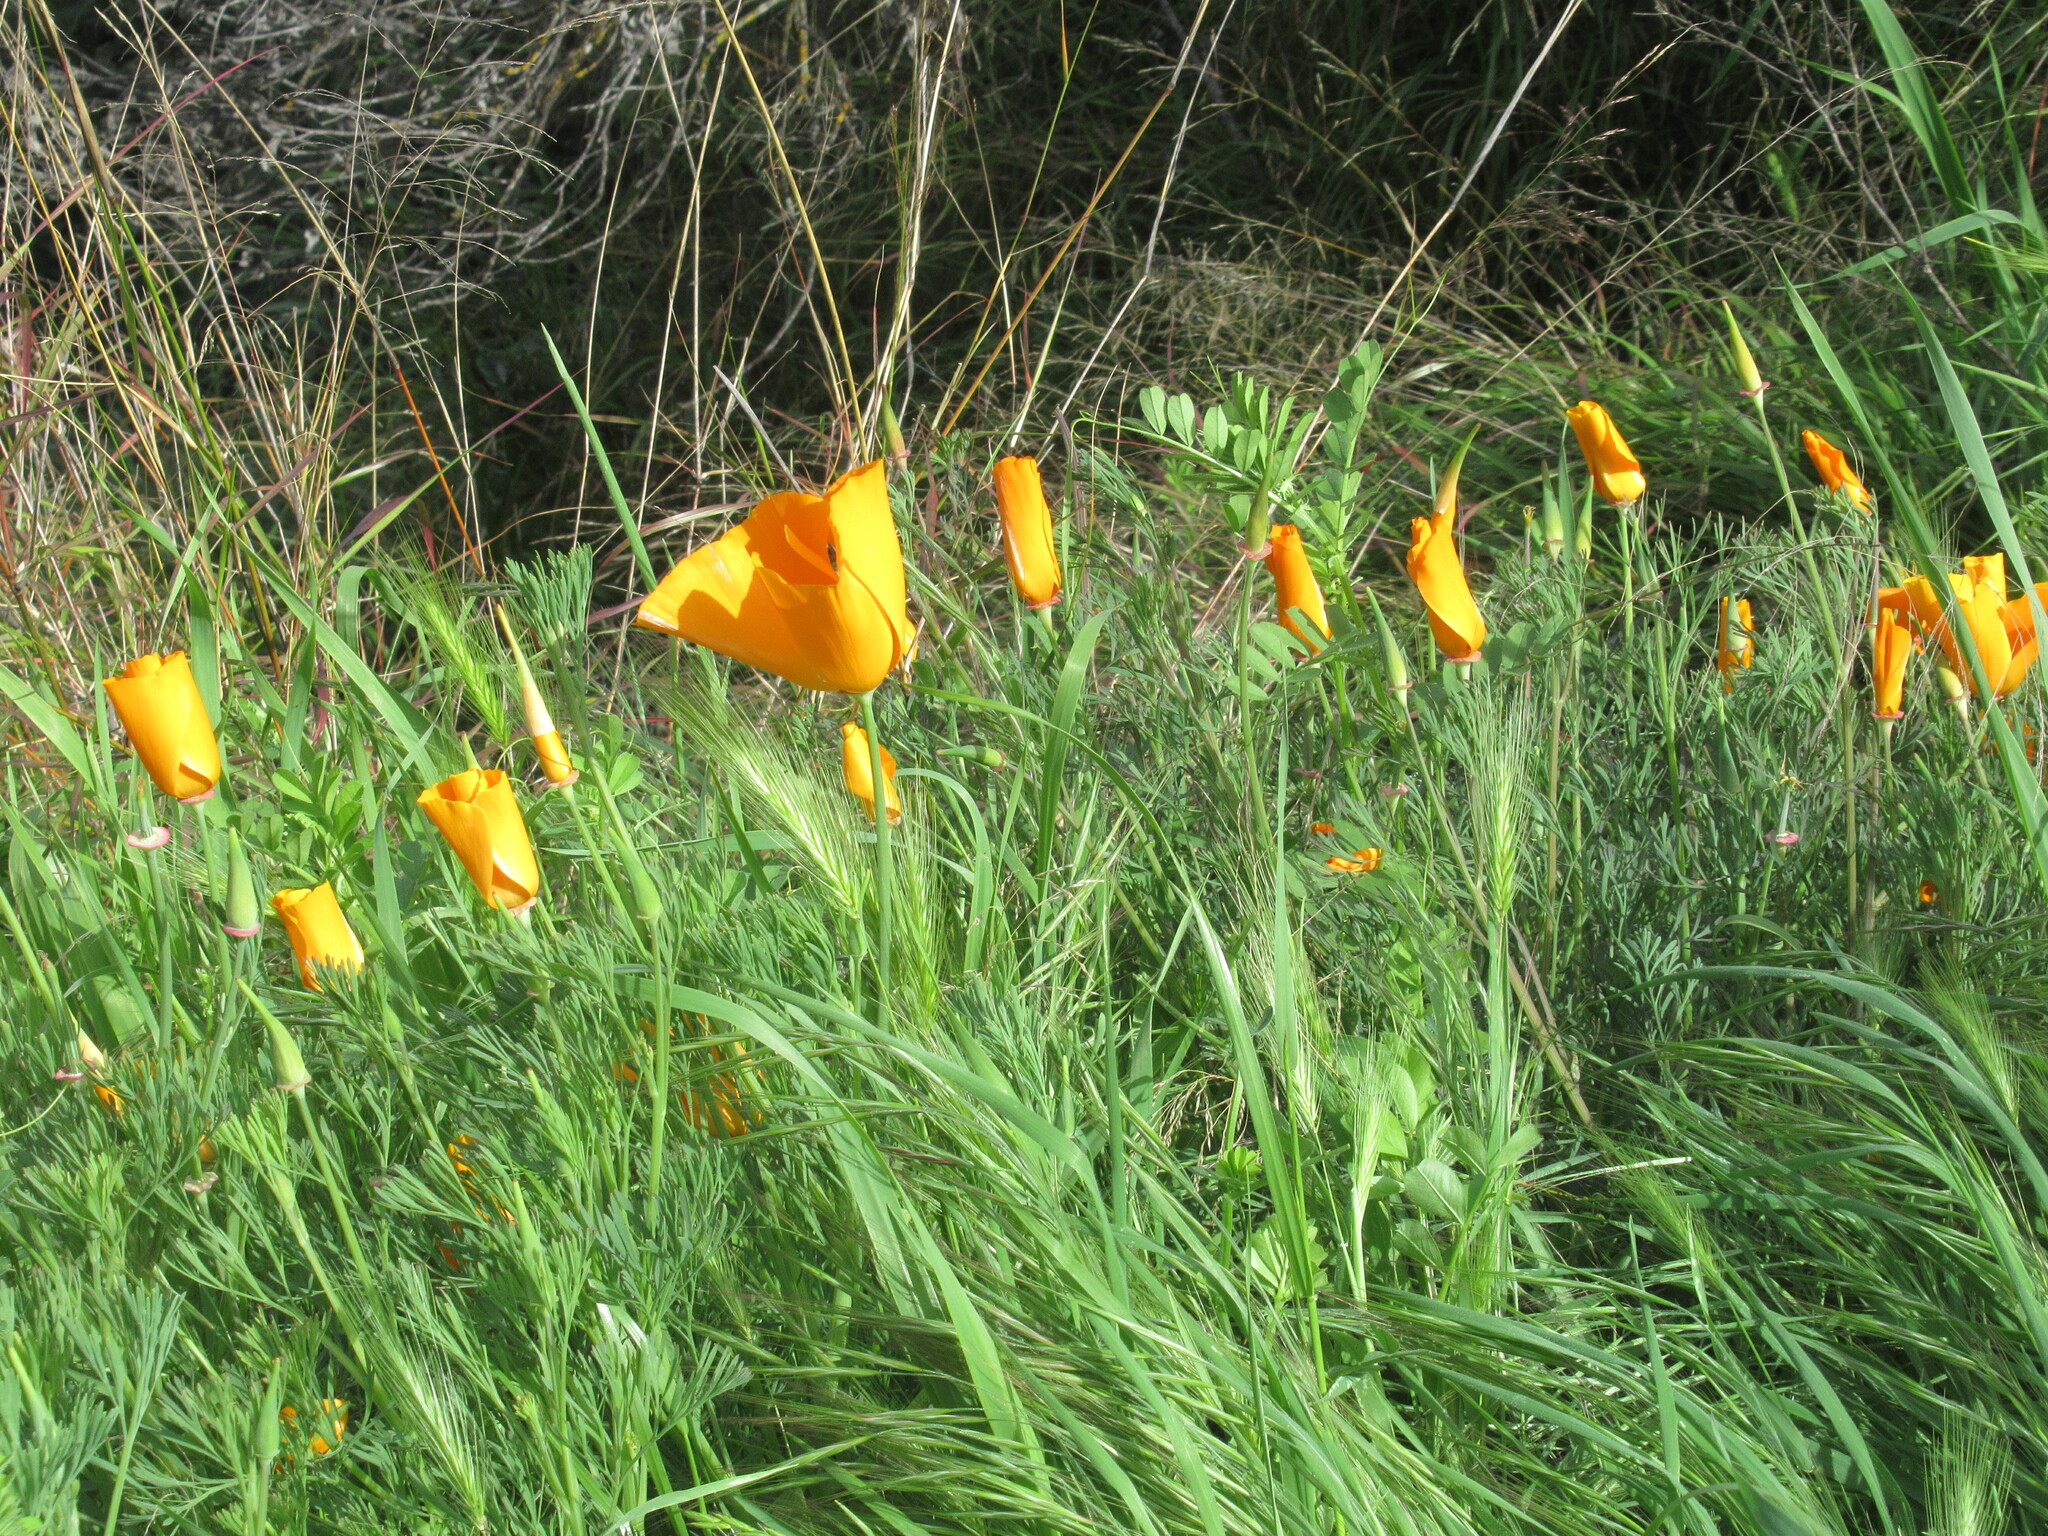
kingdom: Plantae
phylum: Tracheophyta
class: Magnoliopsida
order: Ranunculales
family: Papaveraceae
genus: Eschscholzia
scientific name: Eschscholzia californica
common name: California poppy
